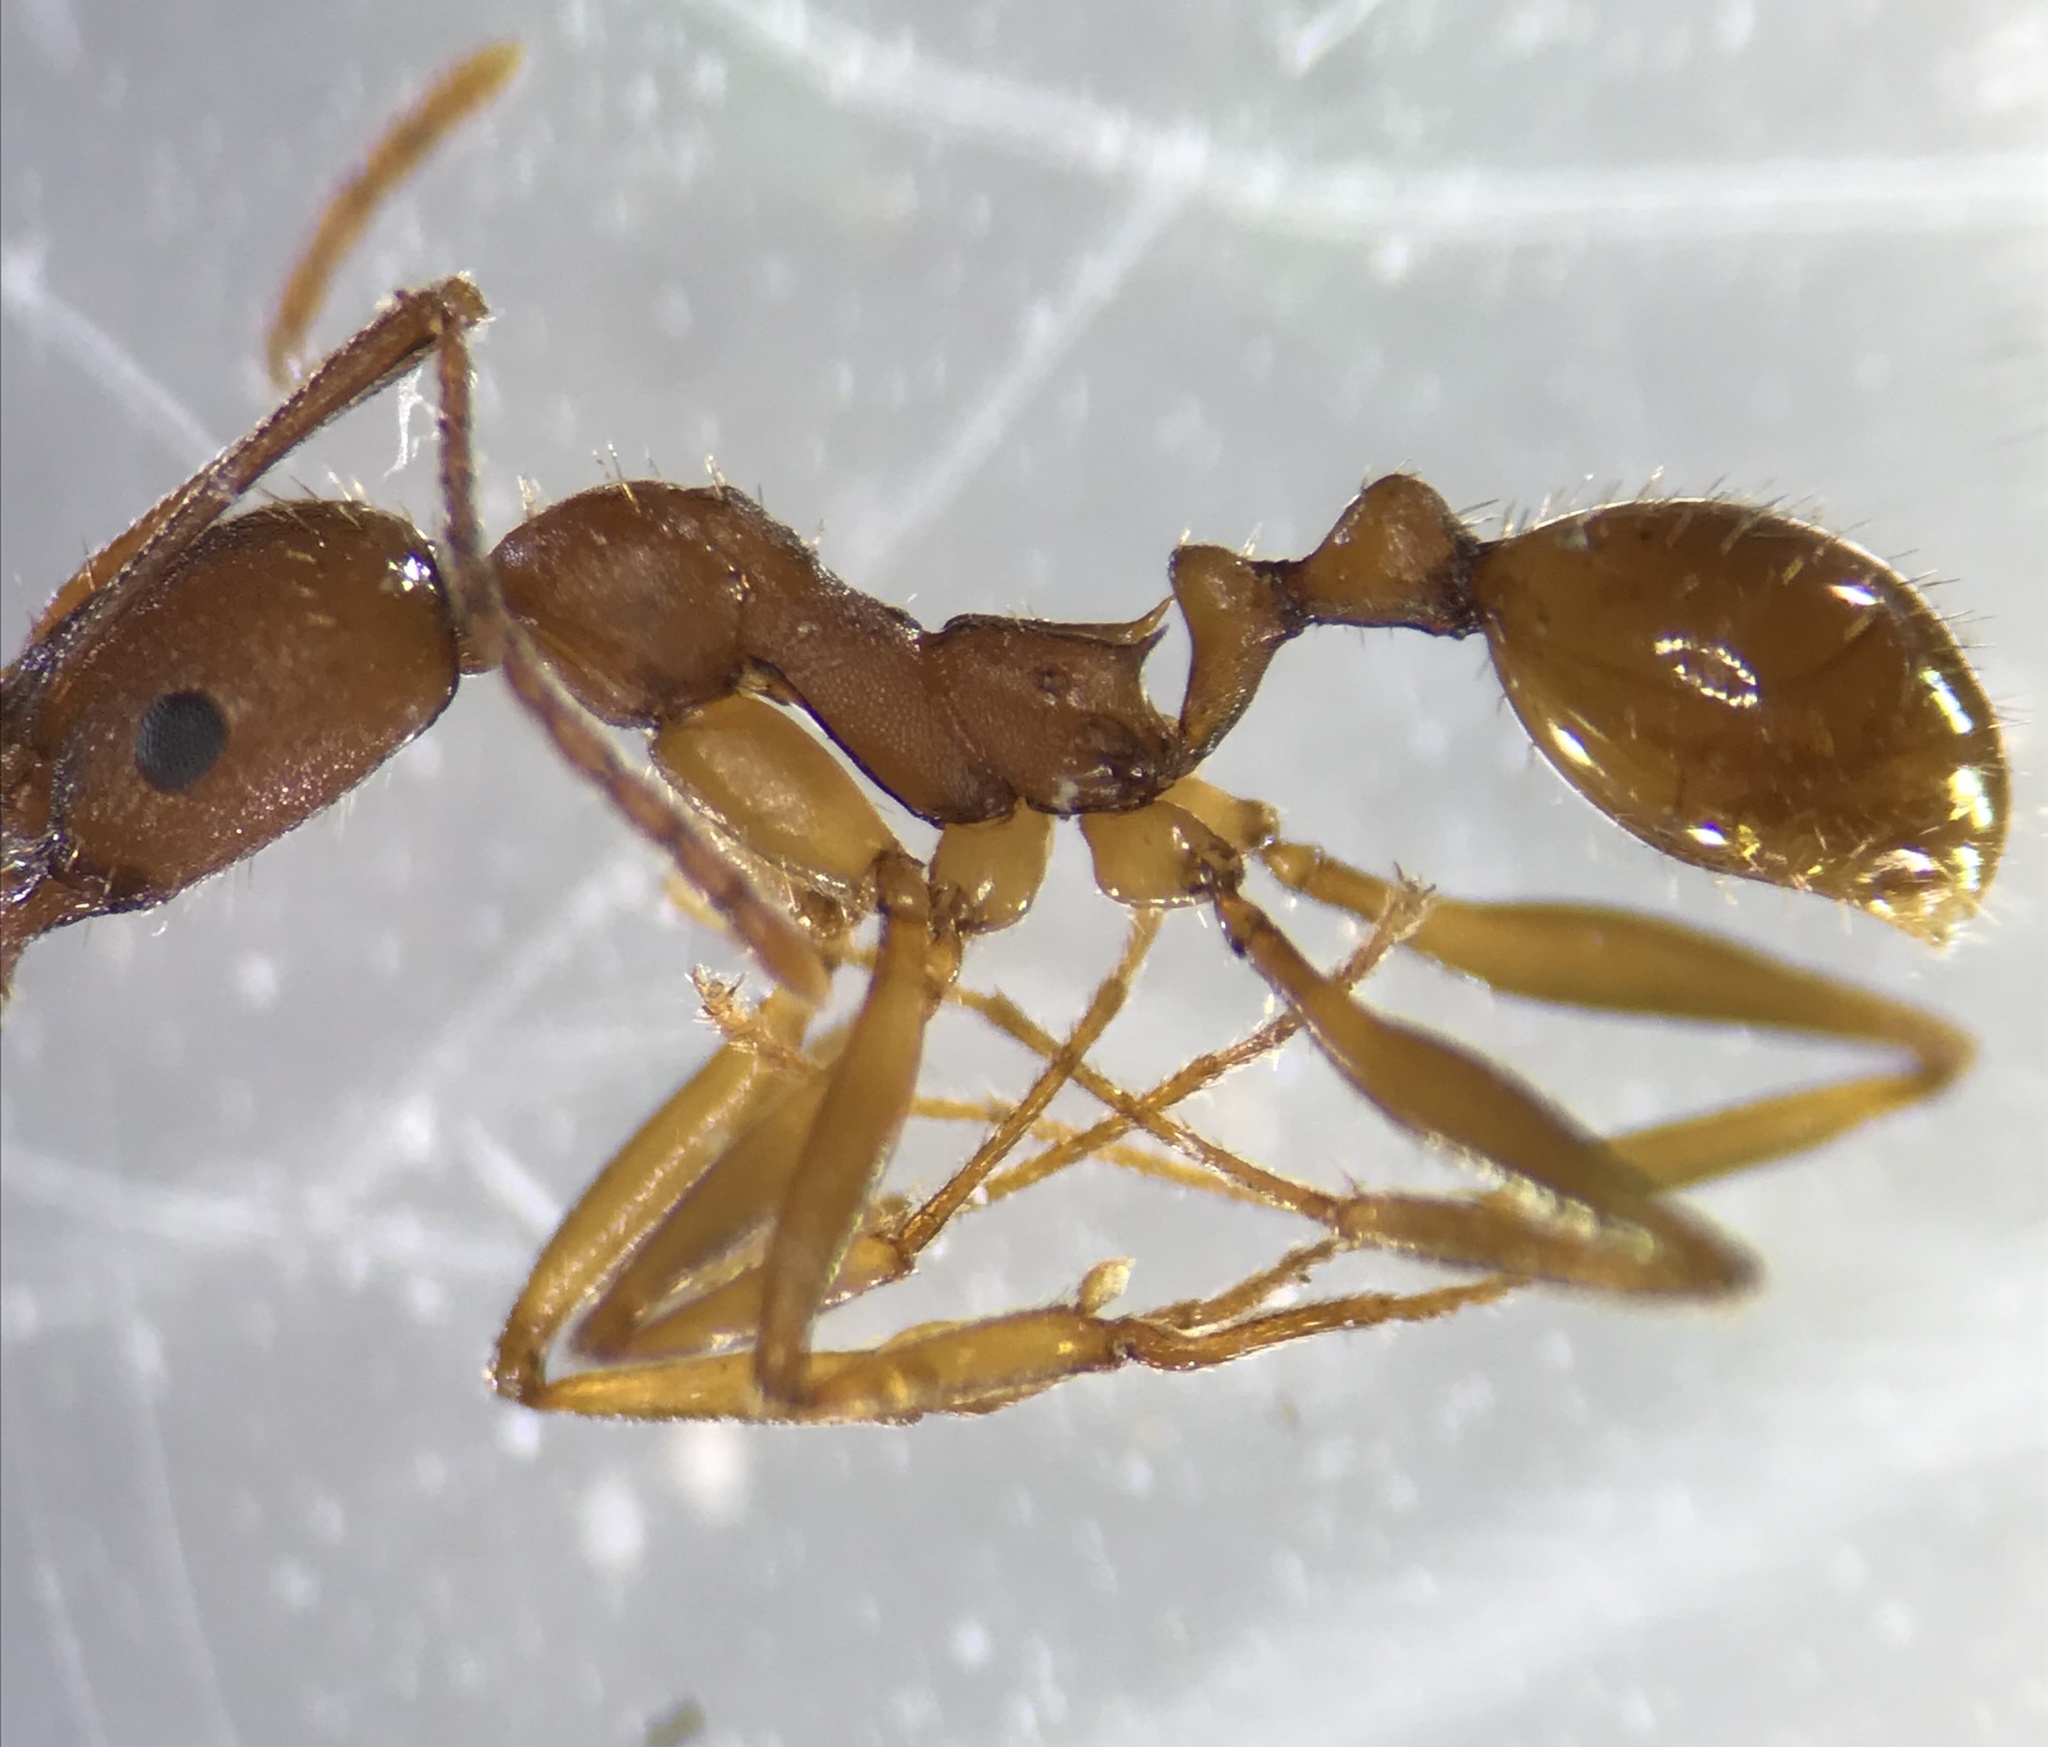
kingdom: Animalia
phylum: Arthropoda
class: Insecta
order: Hymenoptera
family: Formicidae
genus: Aphaenogaster
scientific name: Aphaenogaster texana
